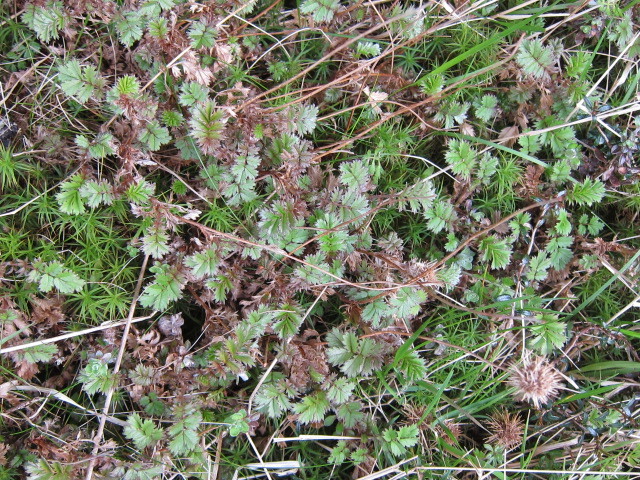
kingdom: Plantae
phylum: Tracheophyta
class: Magnoliopsida
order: Rosales
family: Rosaceae
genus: Acaena
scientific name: Acaena anserinifolia
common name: Bronze pirri-pirri-bur
